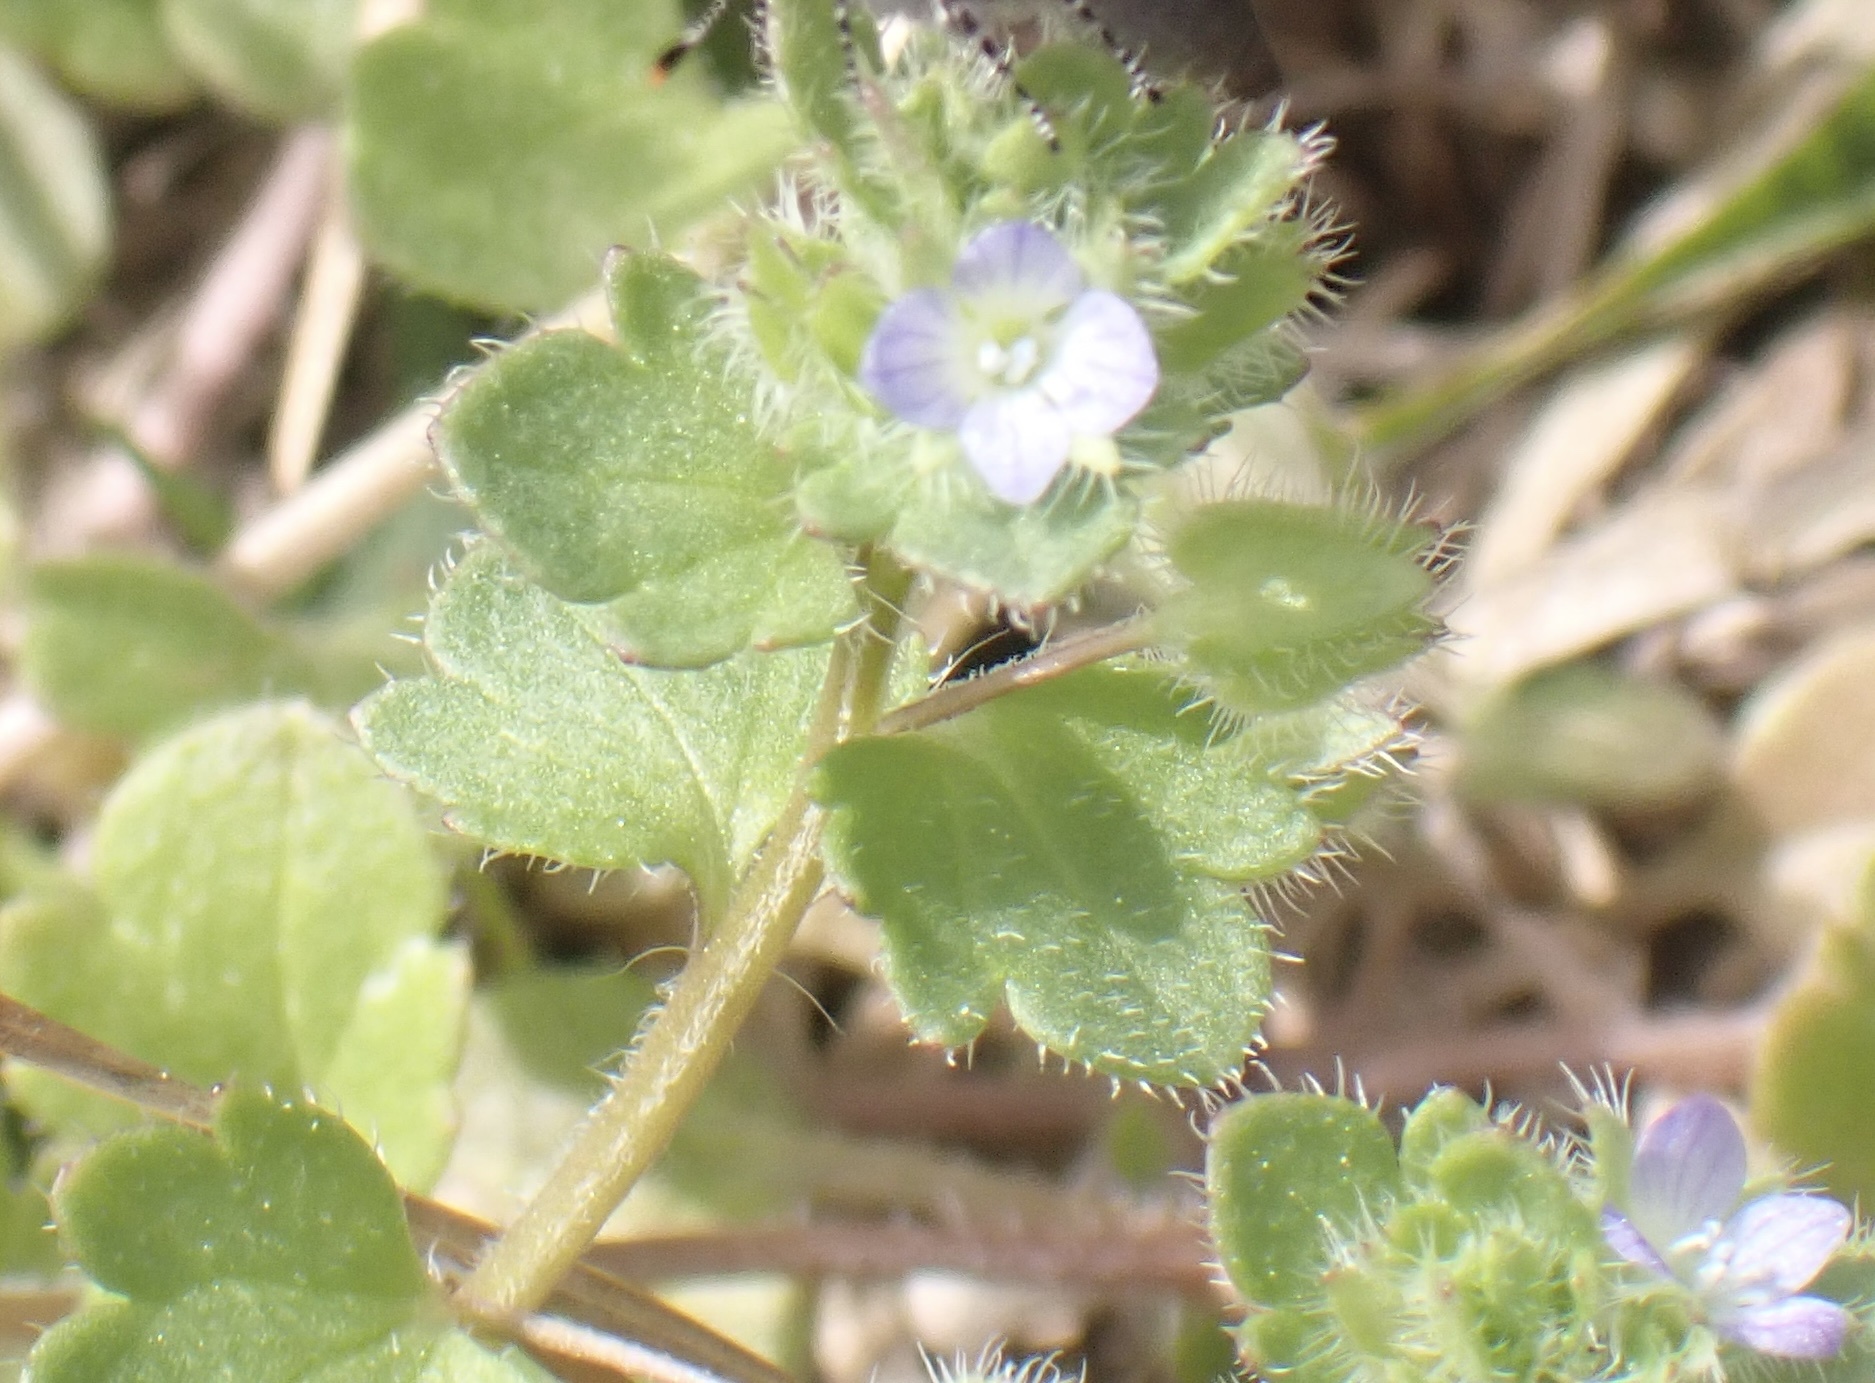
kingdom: Plantae
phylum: Tracheophyta
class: Magnoliopsida
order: Lamiales
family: Plantaginaceae
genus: Veronica
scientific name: Veronica hederifolia
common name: Ivy-leaved speedwell
